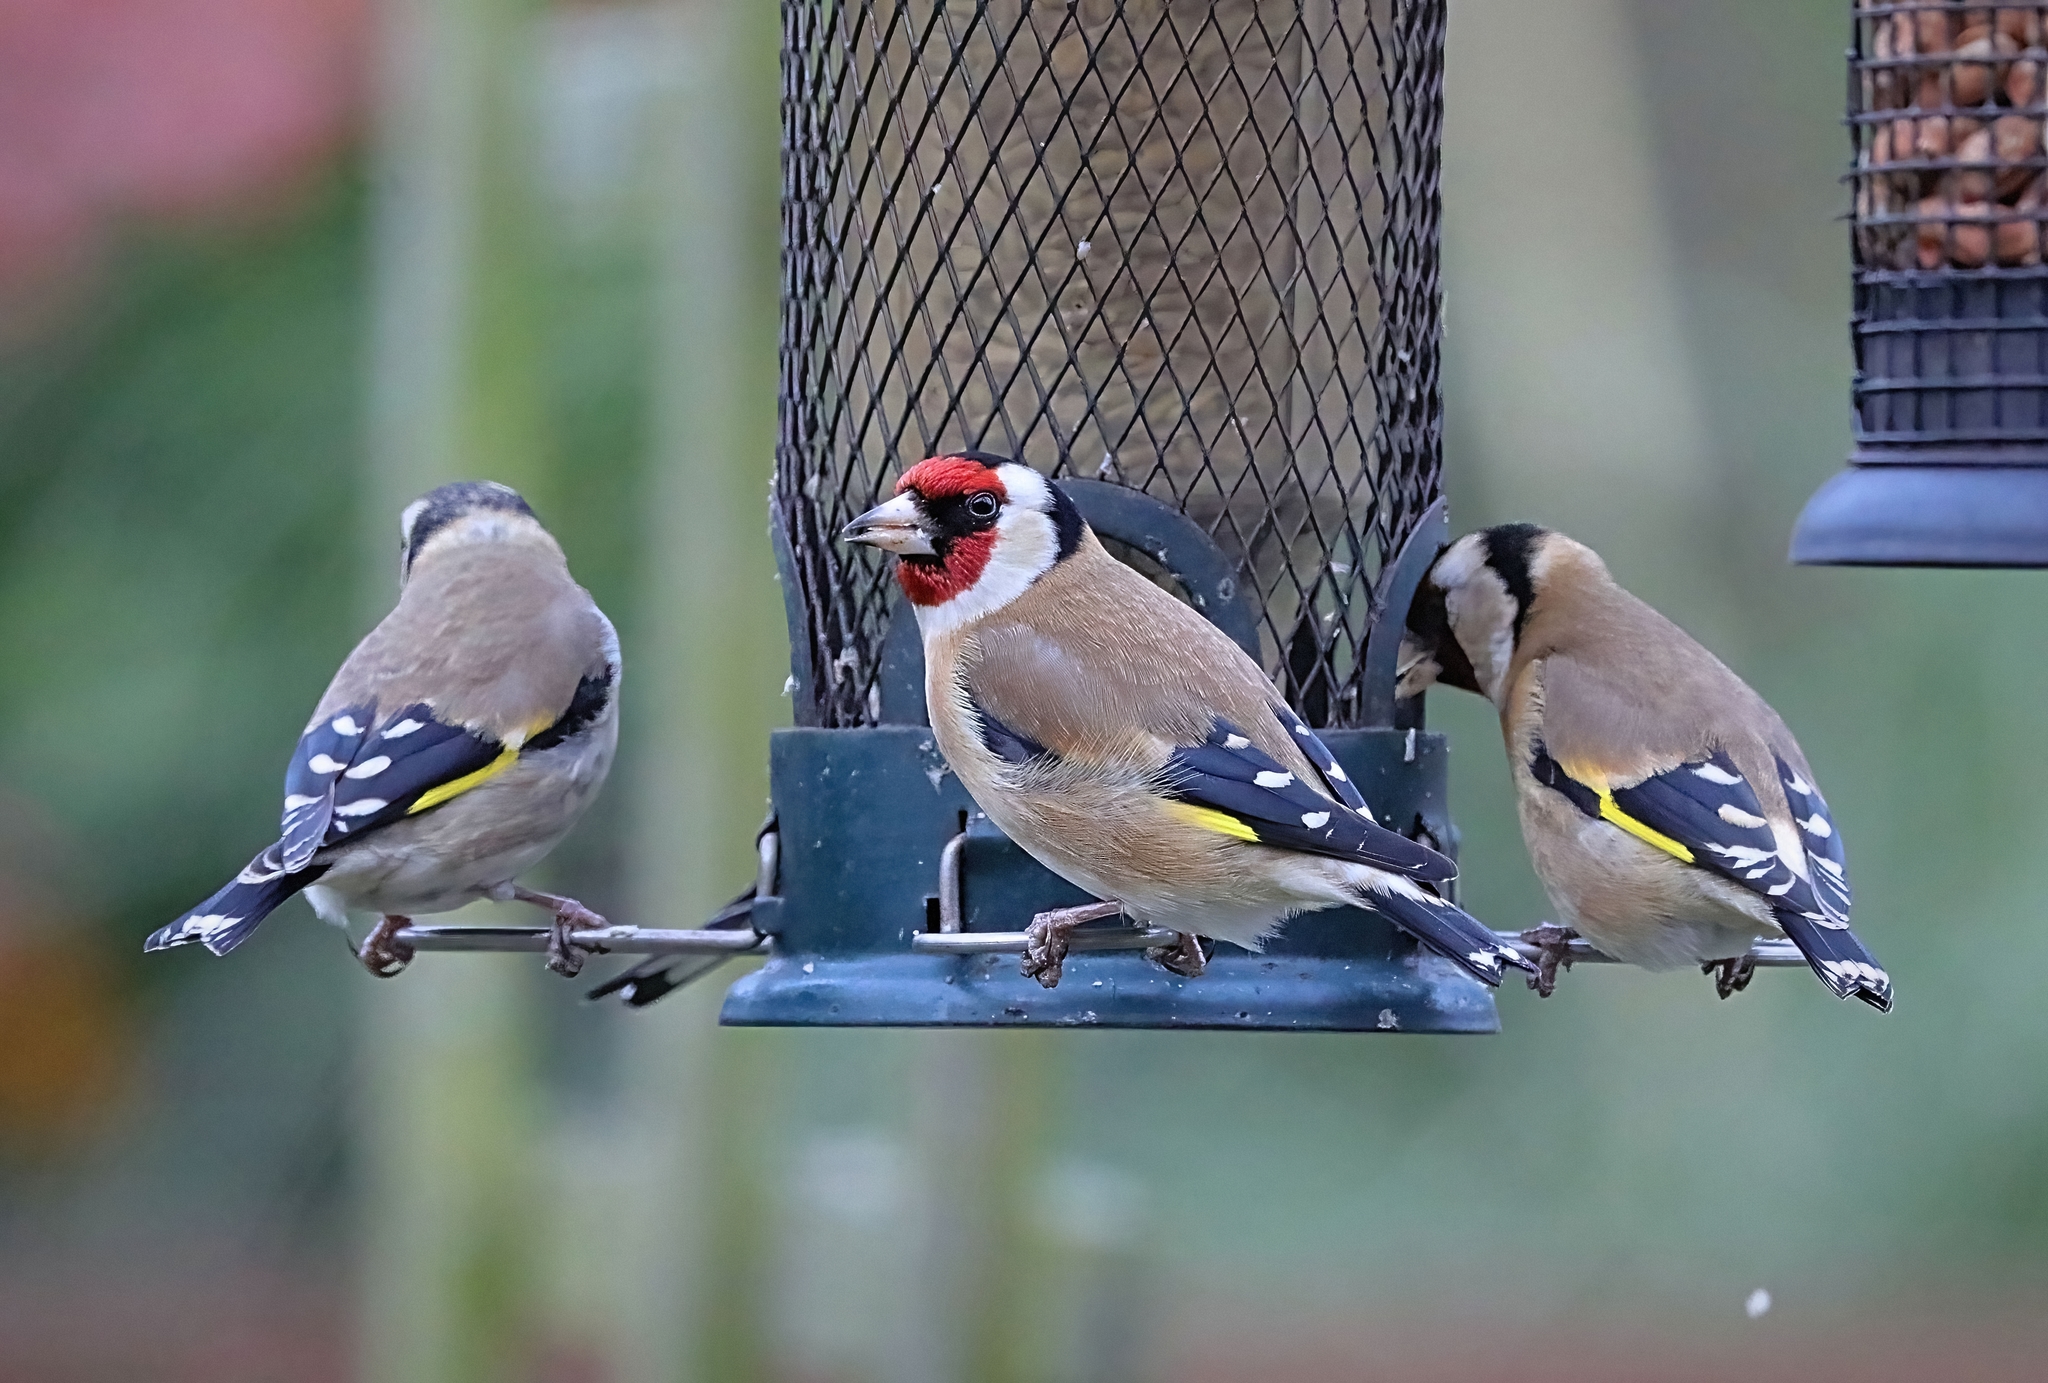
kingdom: Animalia
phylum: Chordata
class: Aves
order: Passeriformes
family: Fringillidae
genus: Carduelis
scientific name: Carduelis carduelis
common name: European goldfinch
